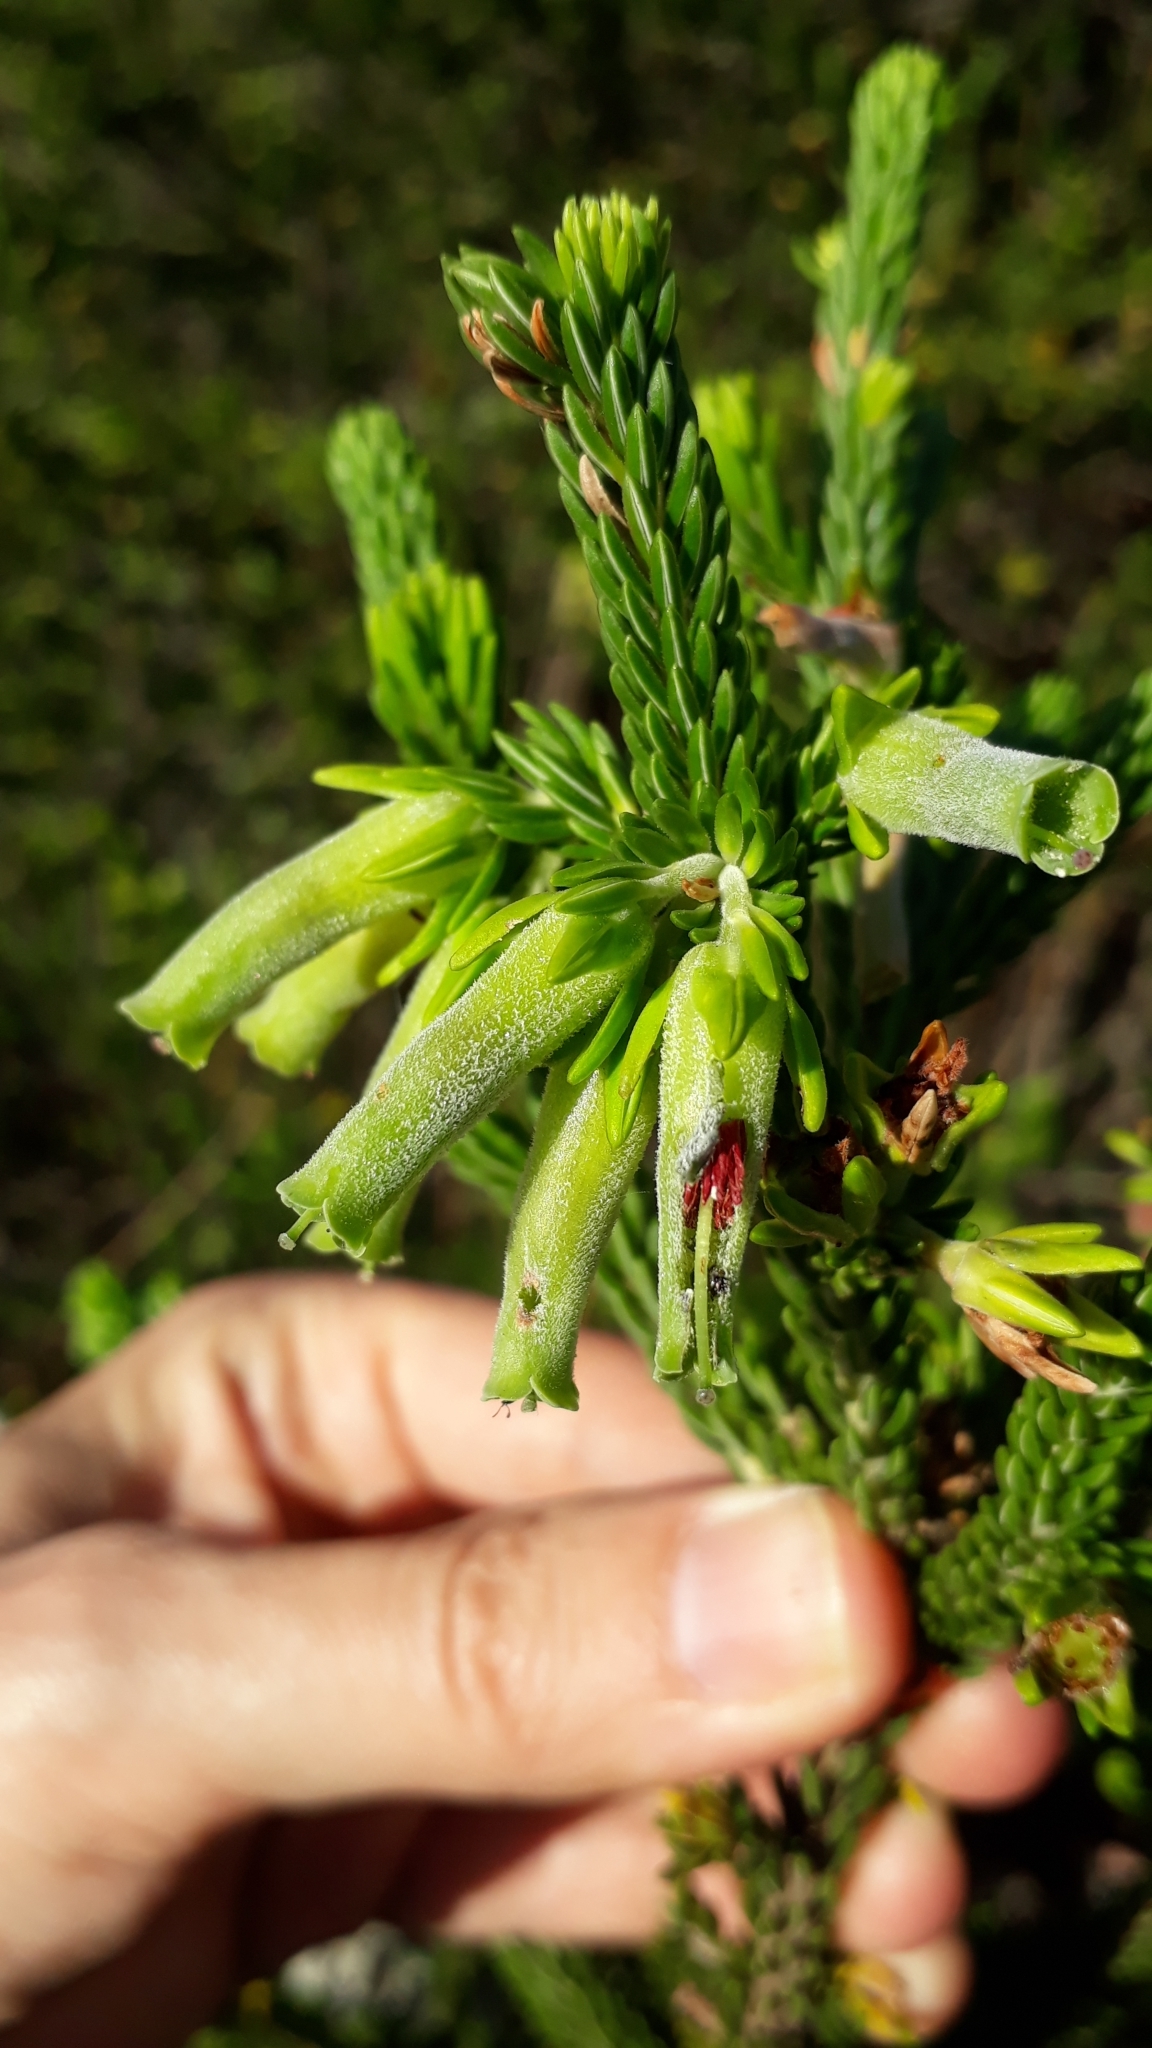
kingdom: Plantae
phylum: Tracheophyta
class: Magnoliopsida
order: Ericales
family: Ericaceae
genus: Erica
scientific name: Erica brachialis
